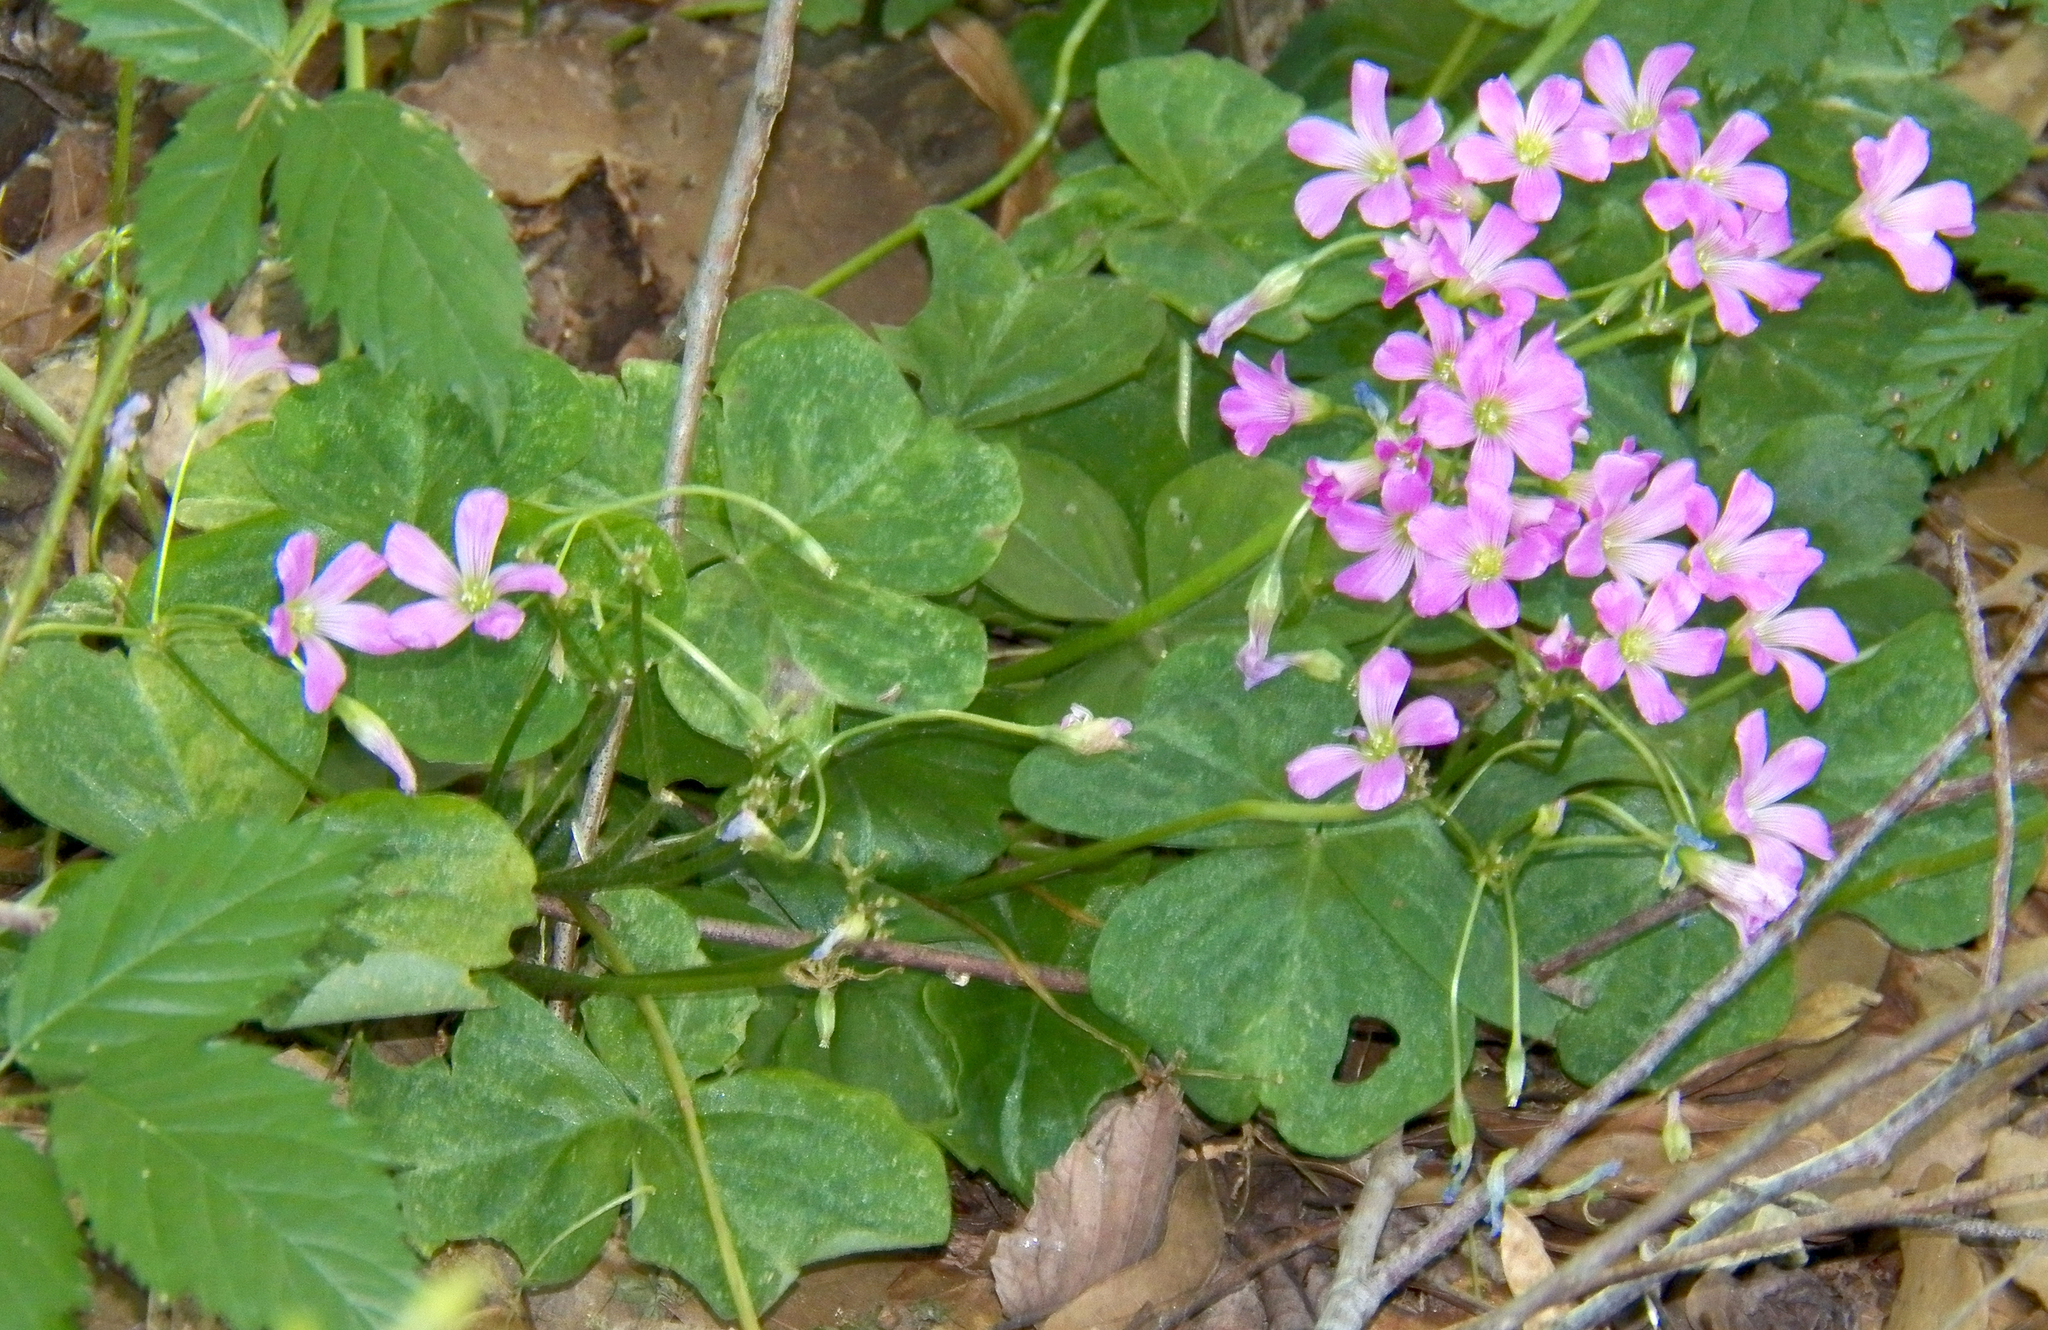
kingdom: Plantae
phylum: Tracheophyta
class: Magnoliopsida
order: Oxalidales
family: Oxalidaceae
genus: Oxalis
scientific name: Oxalis debilis
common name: Large-flowered pink-sorrel
